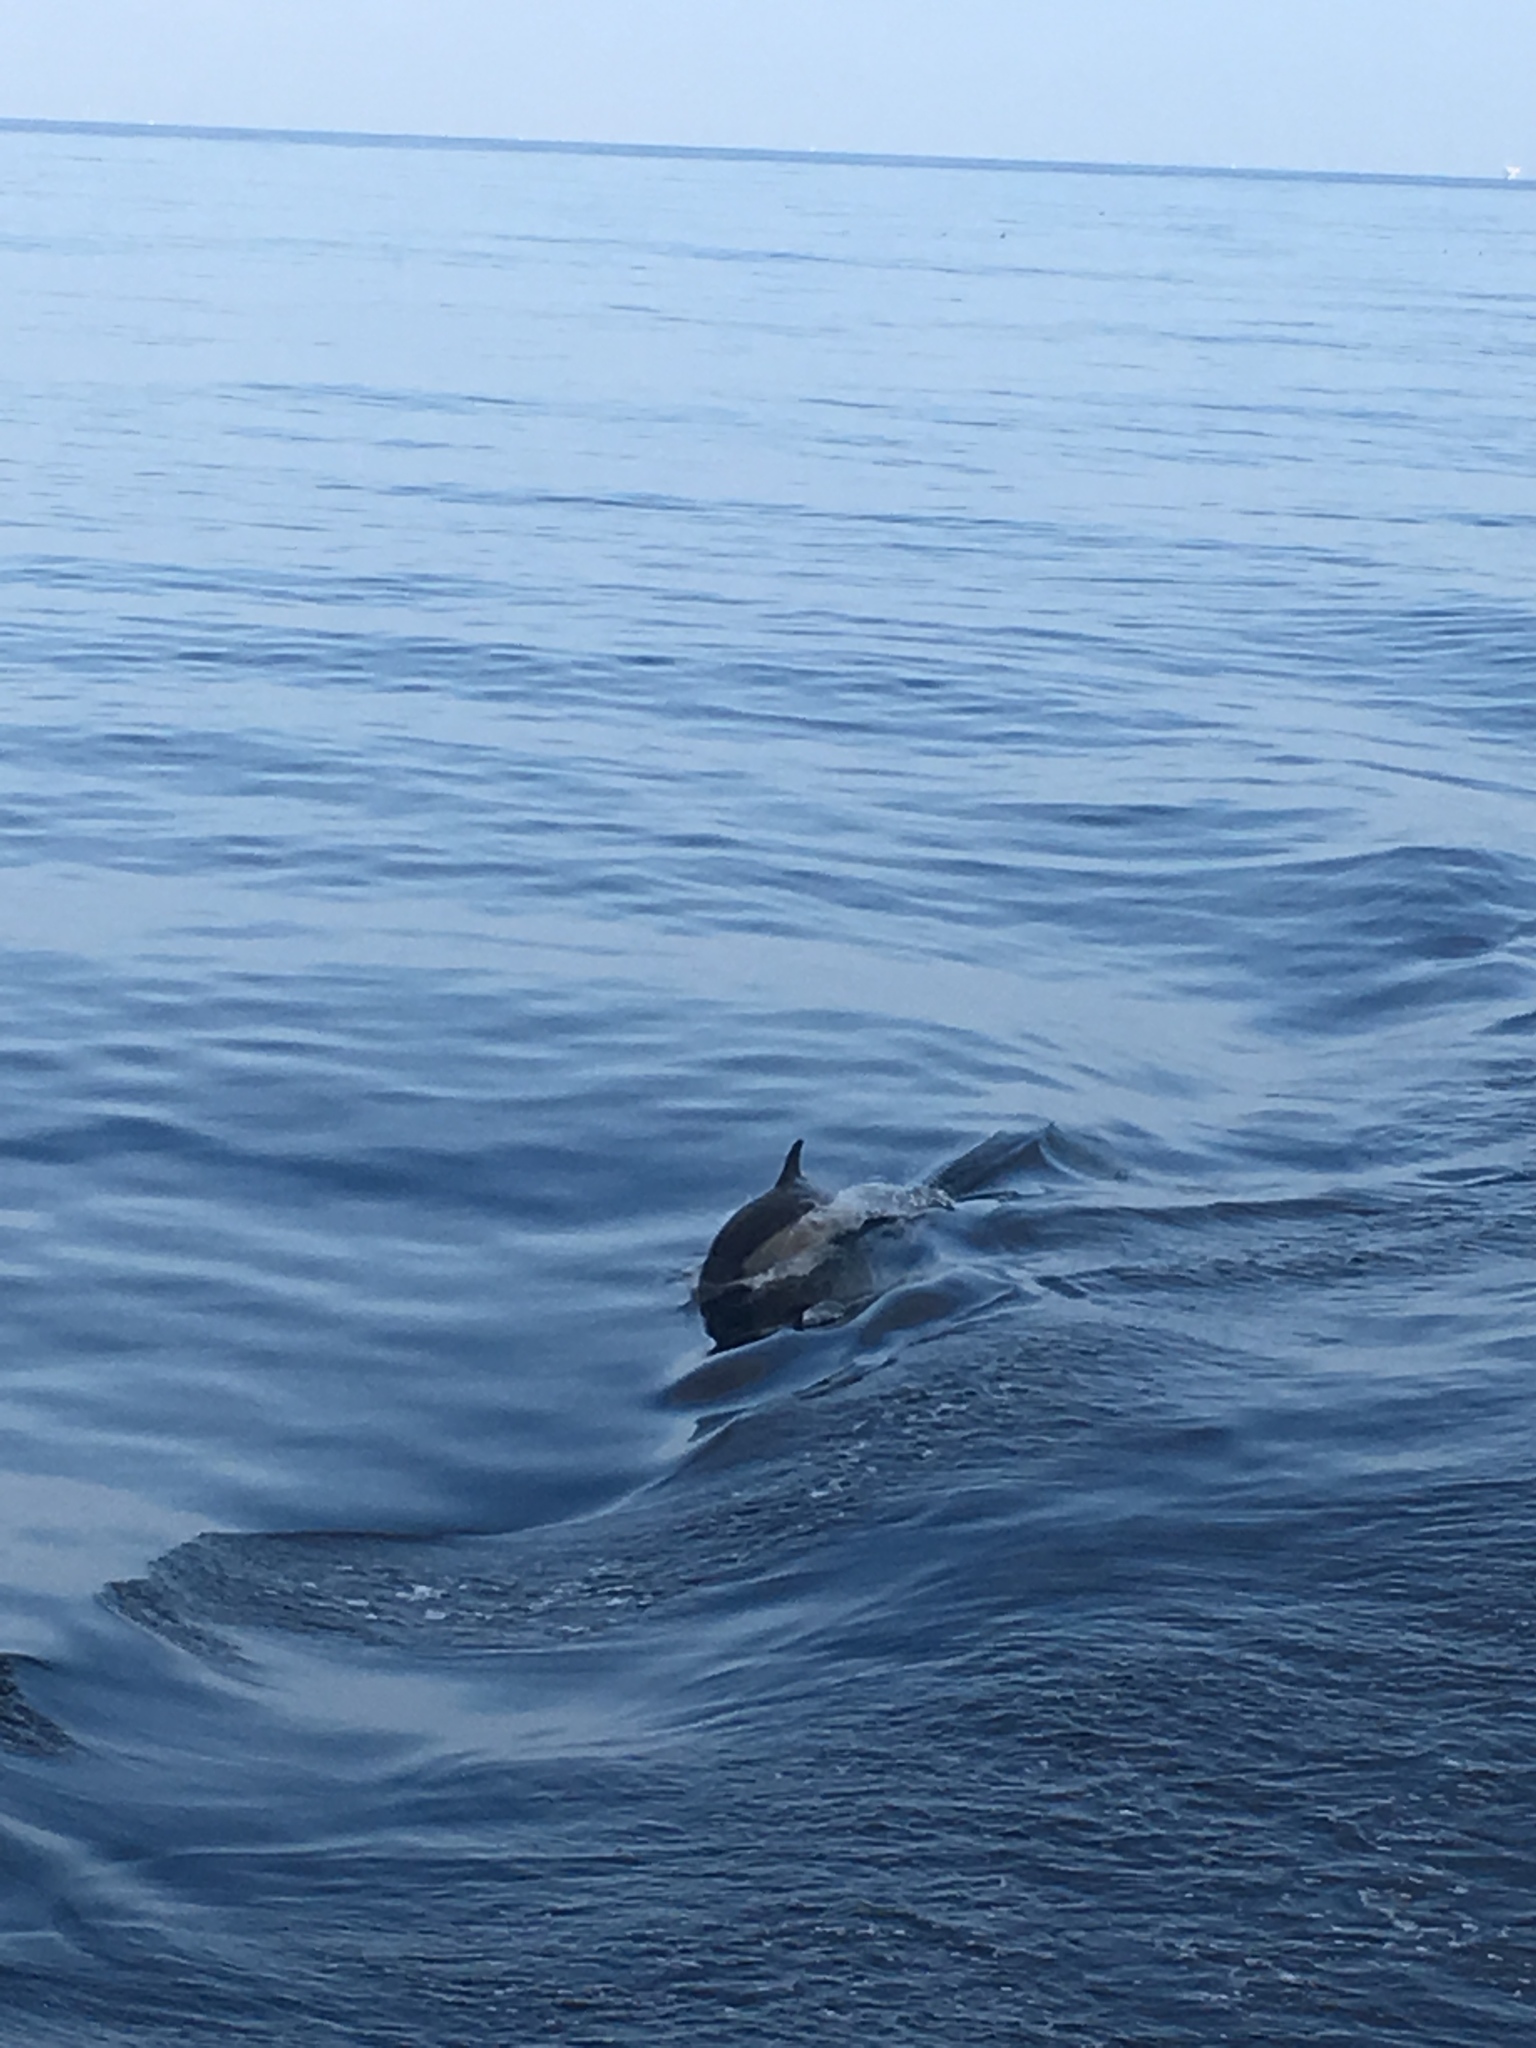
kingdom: Animalia
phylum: Chordata
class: Mammalia
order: Cetacea
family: Delphinidae
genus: Delphinus
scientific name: Delphinus delphis
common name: Common dolphin
